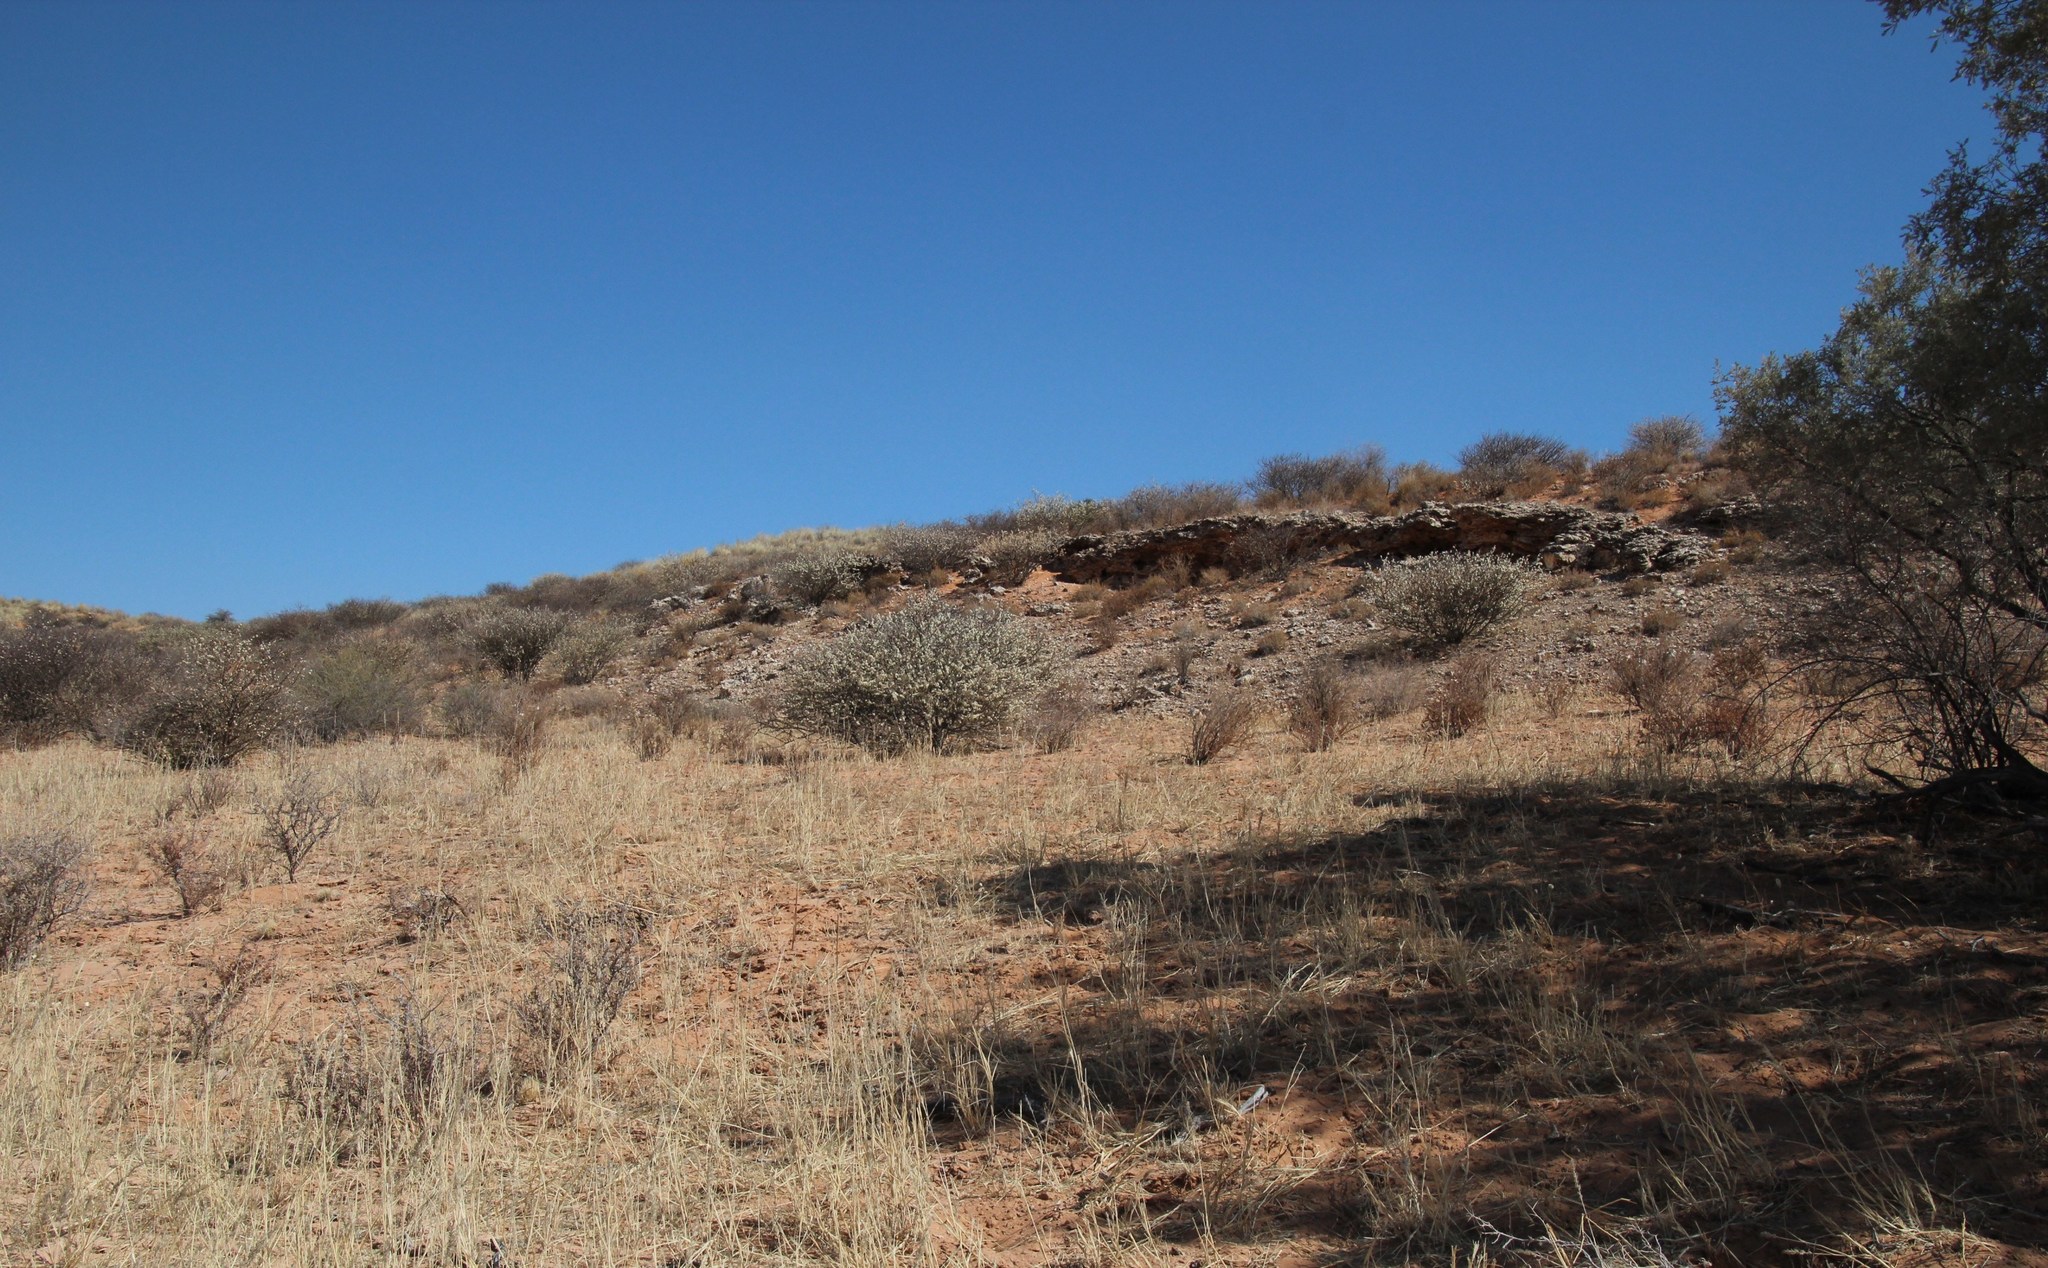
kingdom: Plantae
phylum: Tracheophyta
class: Magnoliopsida
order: Fabales
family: Fabaceae
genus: Senegalia
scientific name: Senegalia mellifera
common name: Hookthorn
